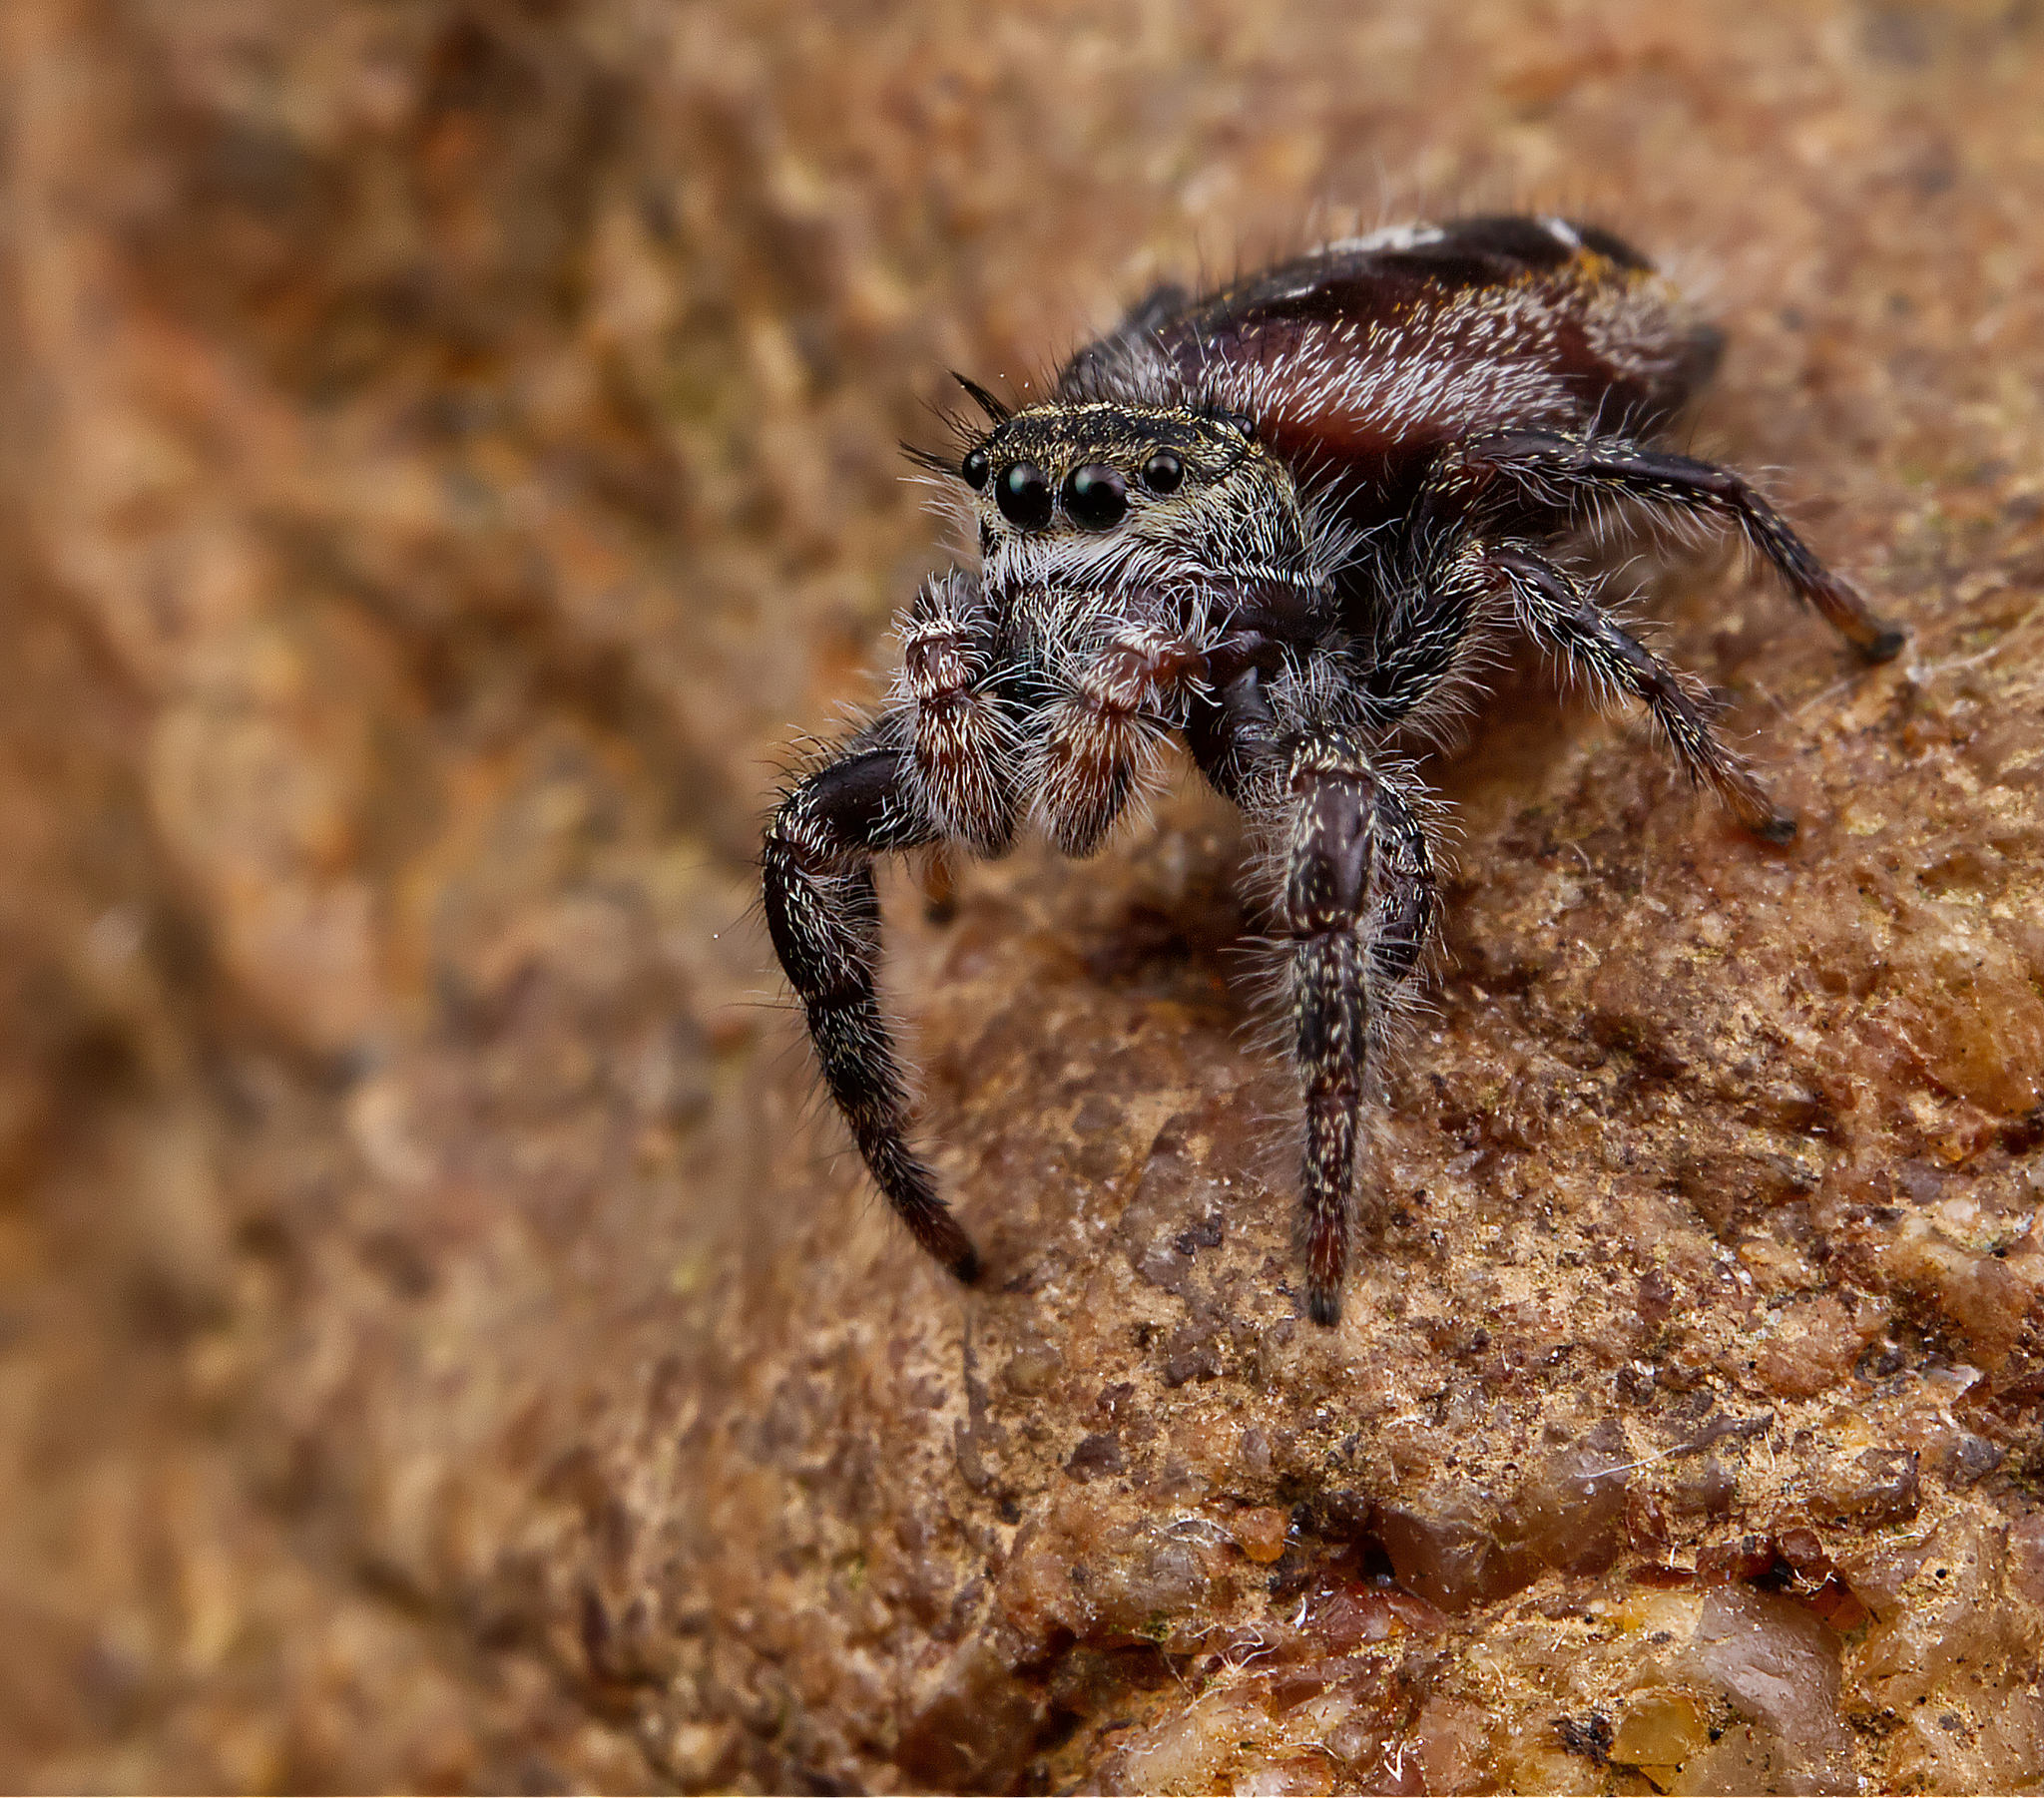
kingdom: Animalia
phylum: Arthropoda
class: Arachnida
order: Araneae
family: Salticidae
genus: Phidippus
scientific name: Phidippus insignarius
